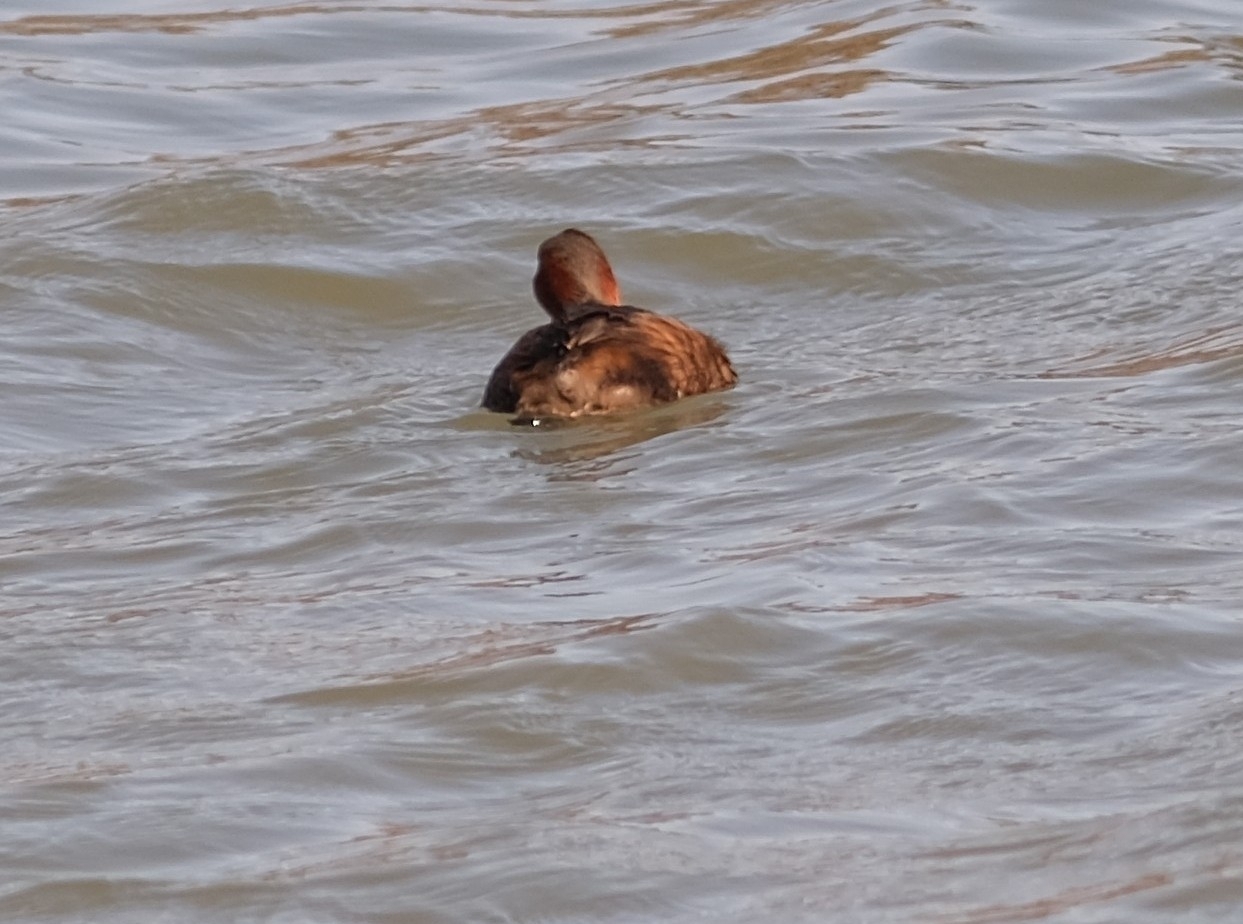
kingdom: Animalia
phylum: Chordata
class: Aves
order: Podicipediformes
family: Podicipedidae
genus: Tachybaptus
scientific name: Tachybaptus ruficollis
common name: Little grebe
